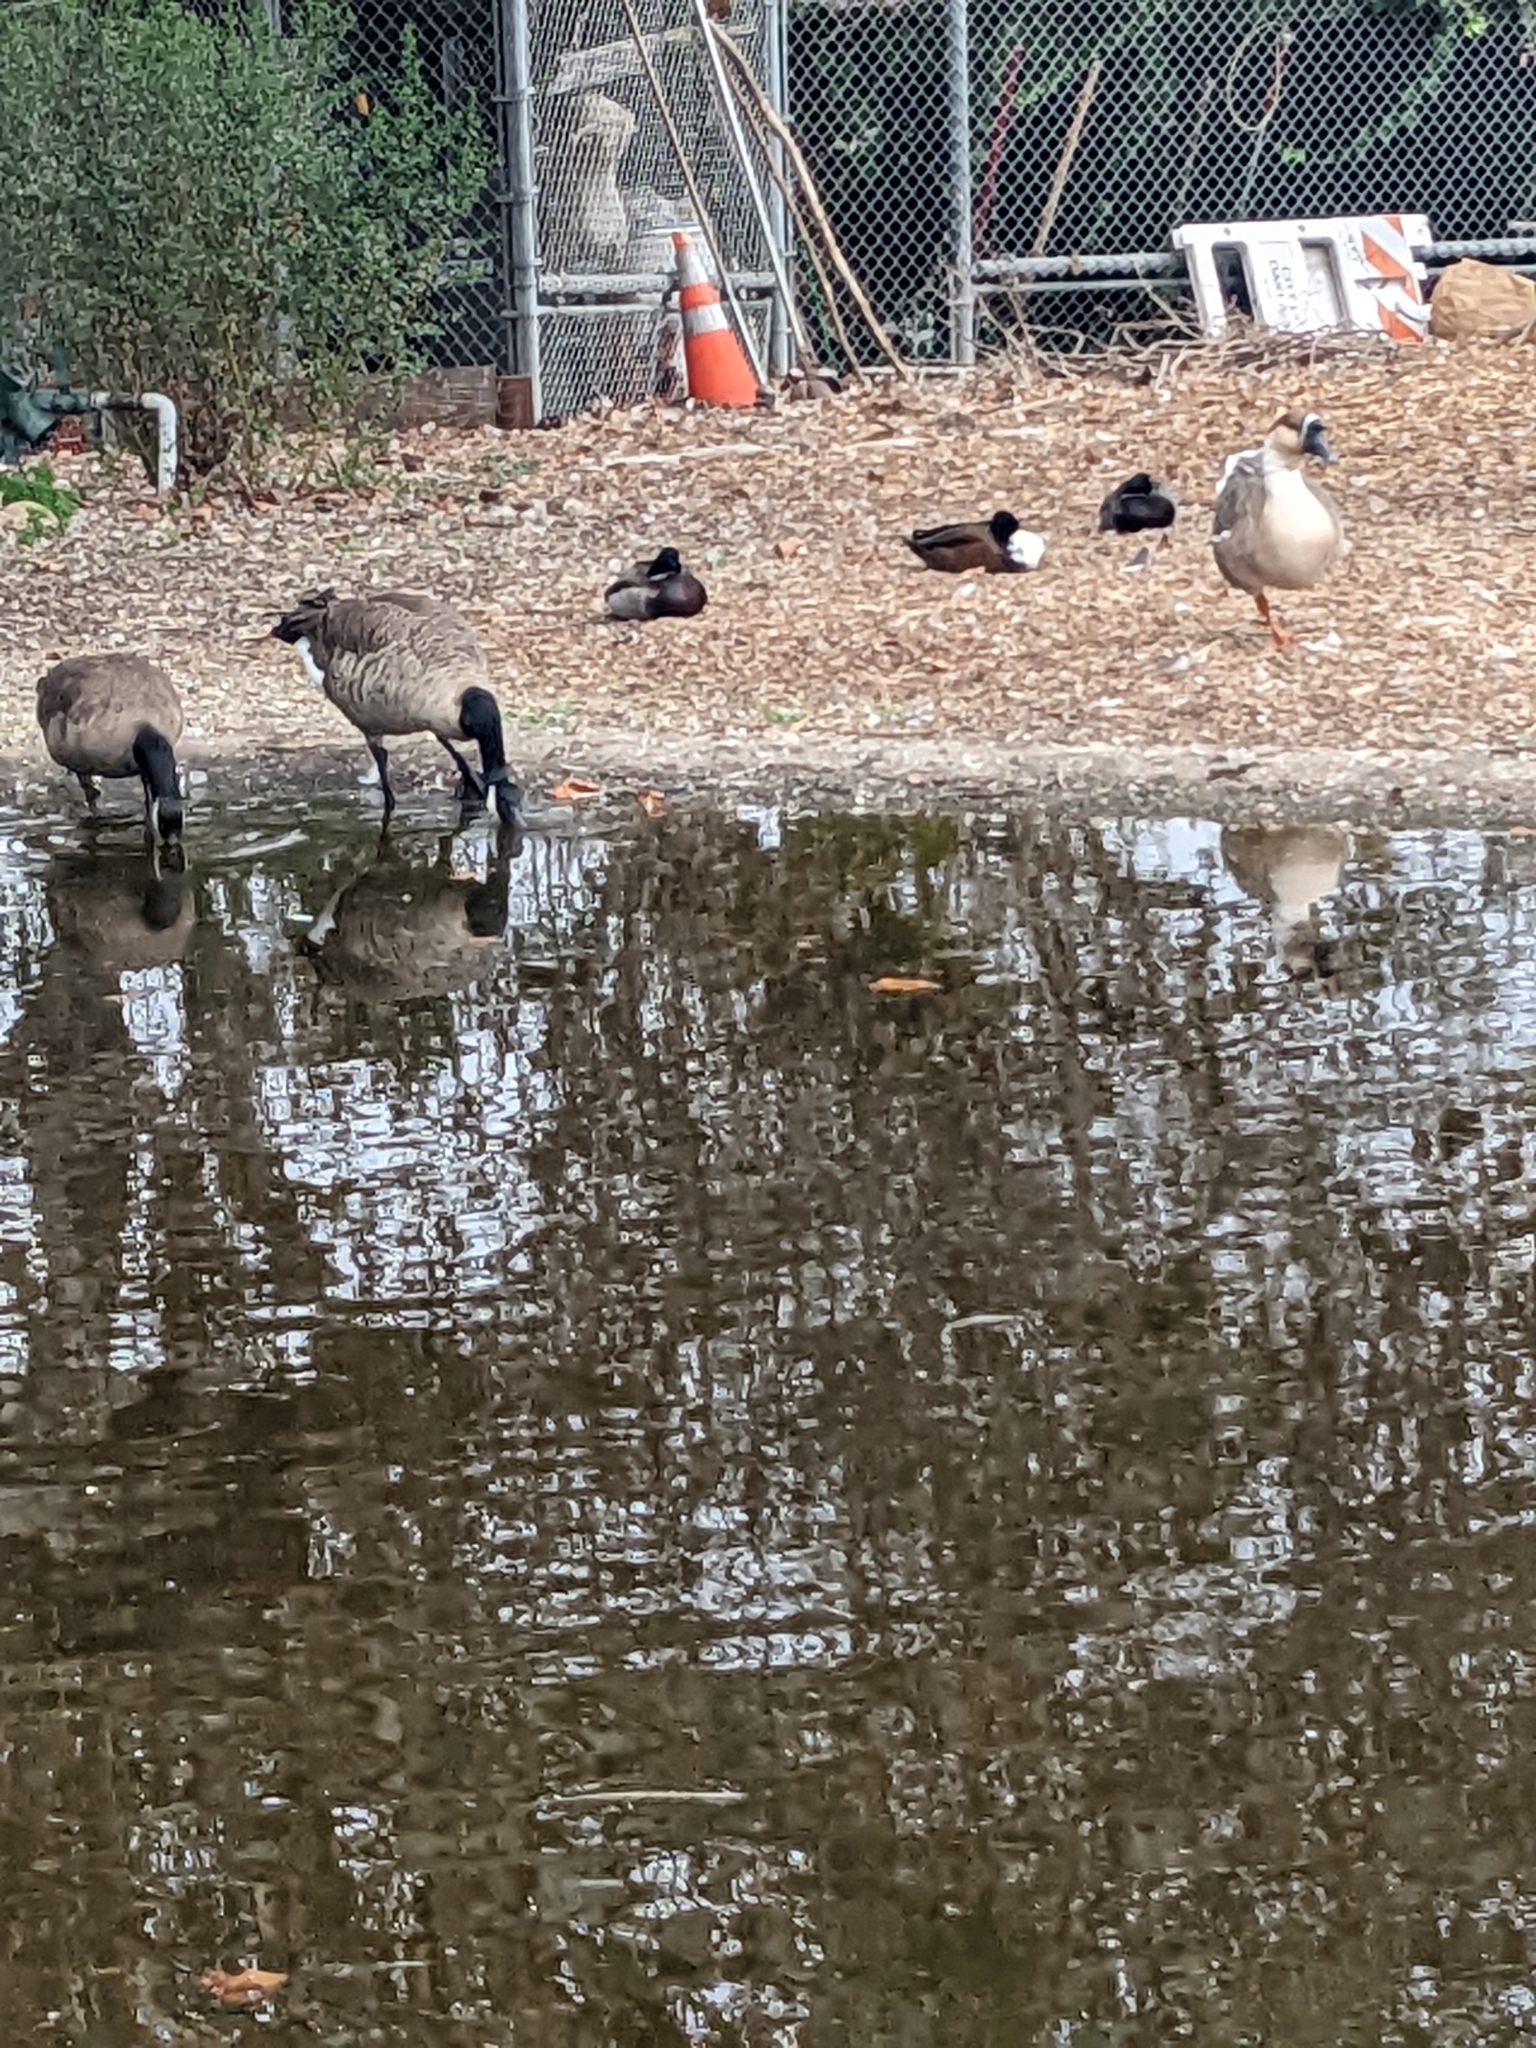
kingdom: Animalia
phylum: Chordata
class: Aves
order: Anseriformes
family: Anatidae
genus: Branta
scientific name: Branta canadensis
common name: Canada goose
